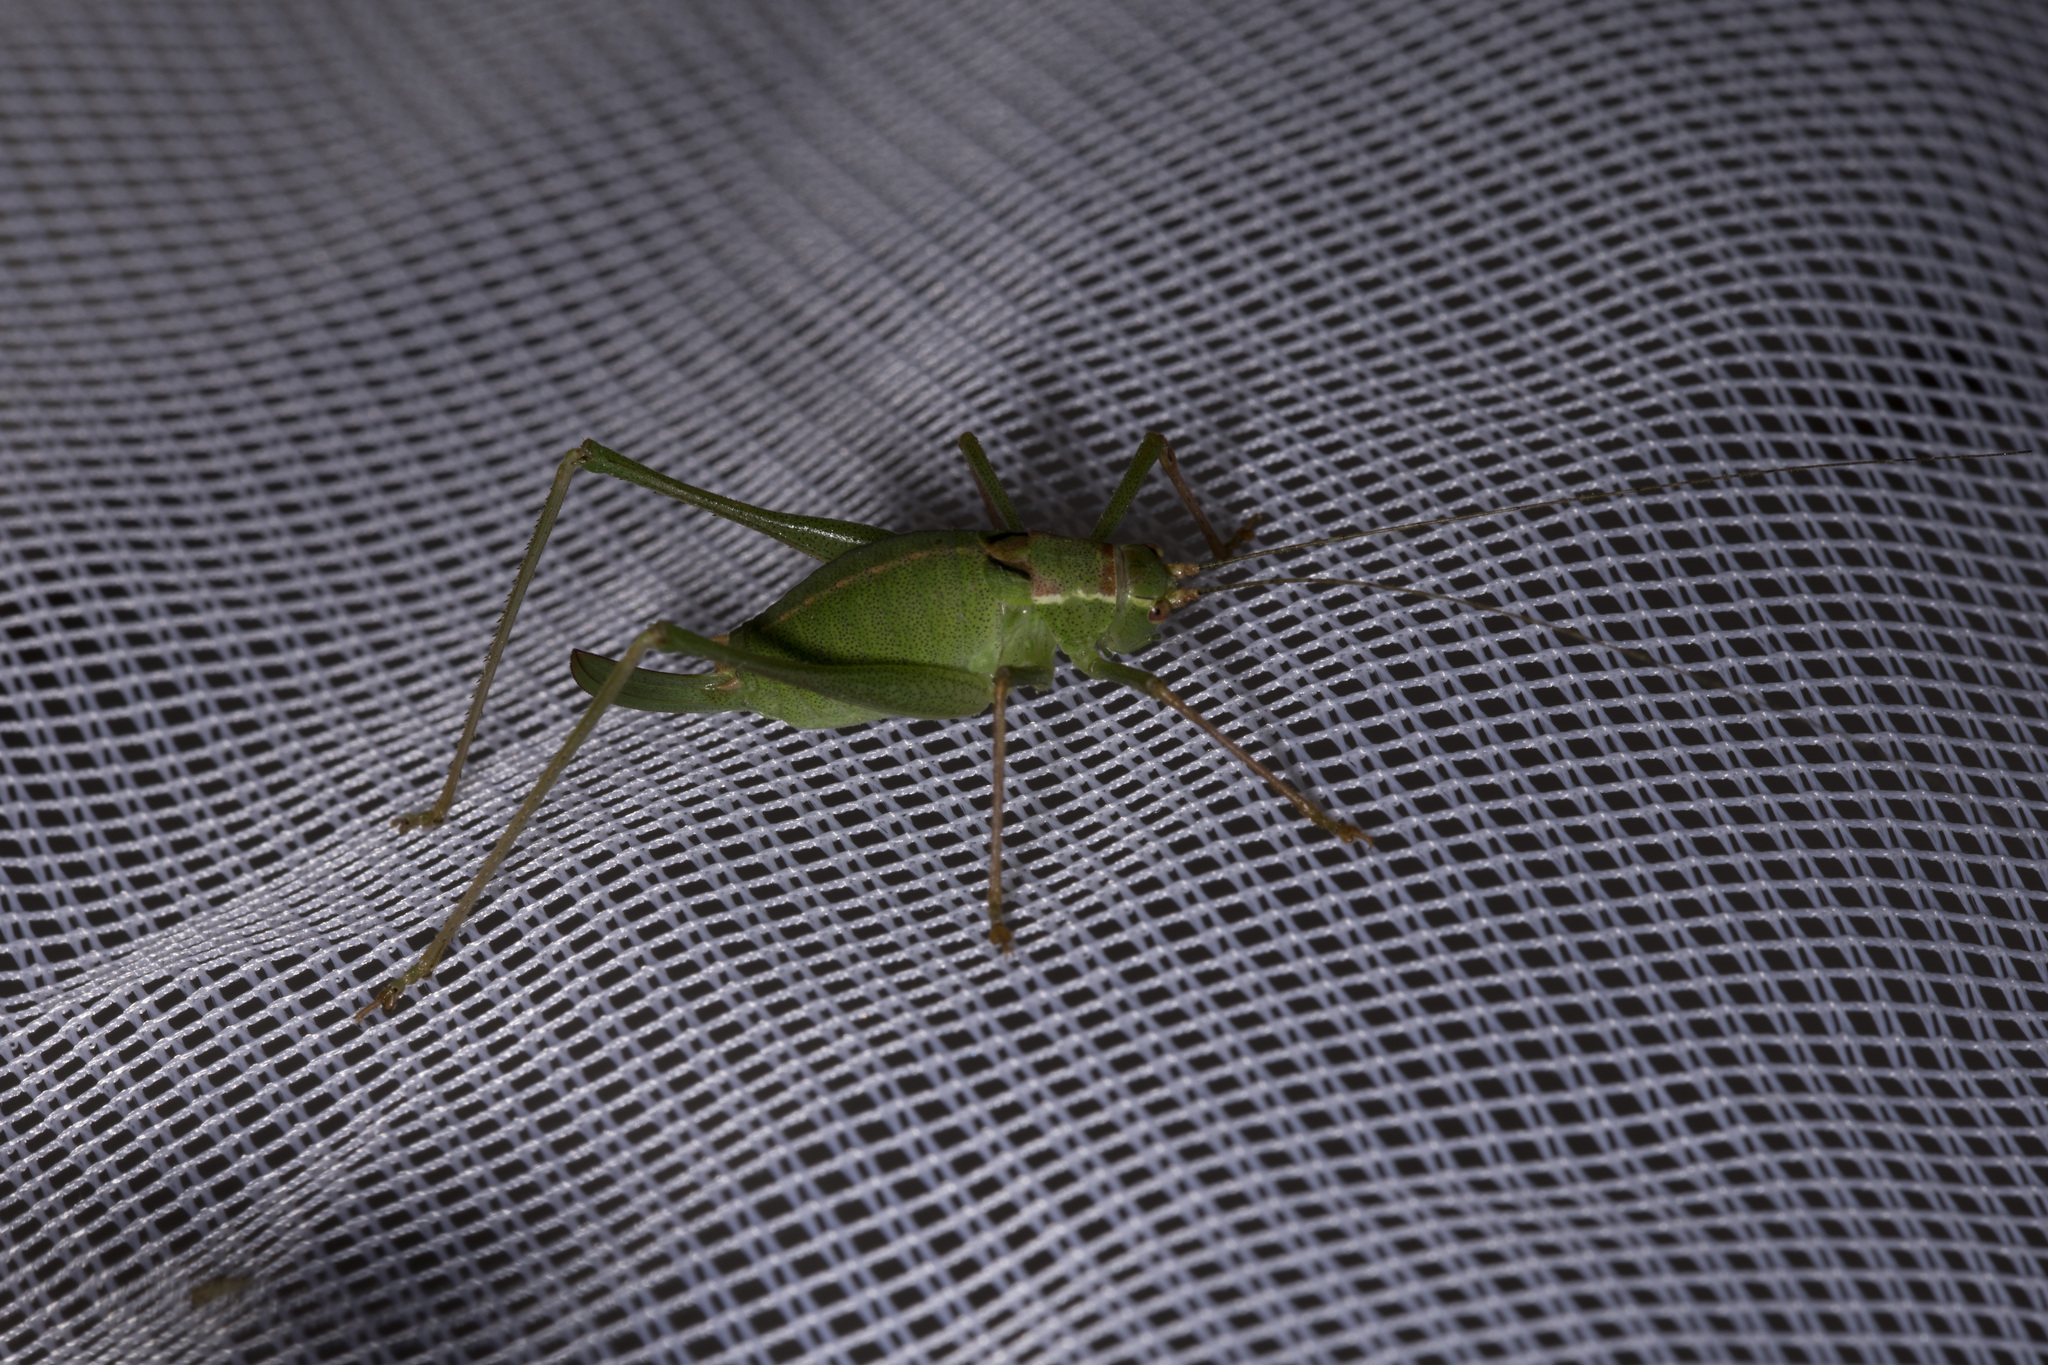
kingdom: Animalia
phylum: Arthropoda
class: Insecta
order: Orthoptera
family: Tettigoniidae
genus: Leptophyes
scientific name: Leptophyes punctatissima
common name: Speckled bush-cricket
